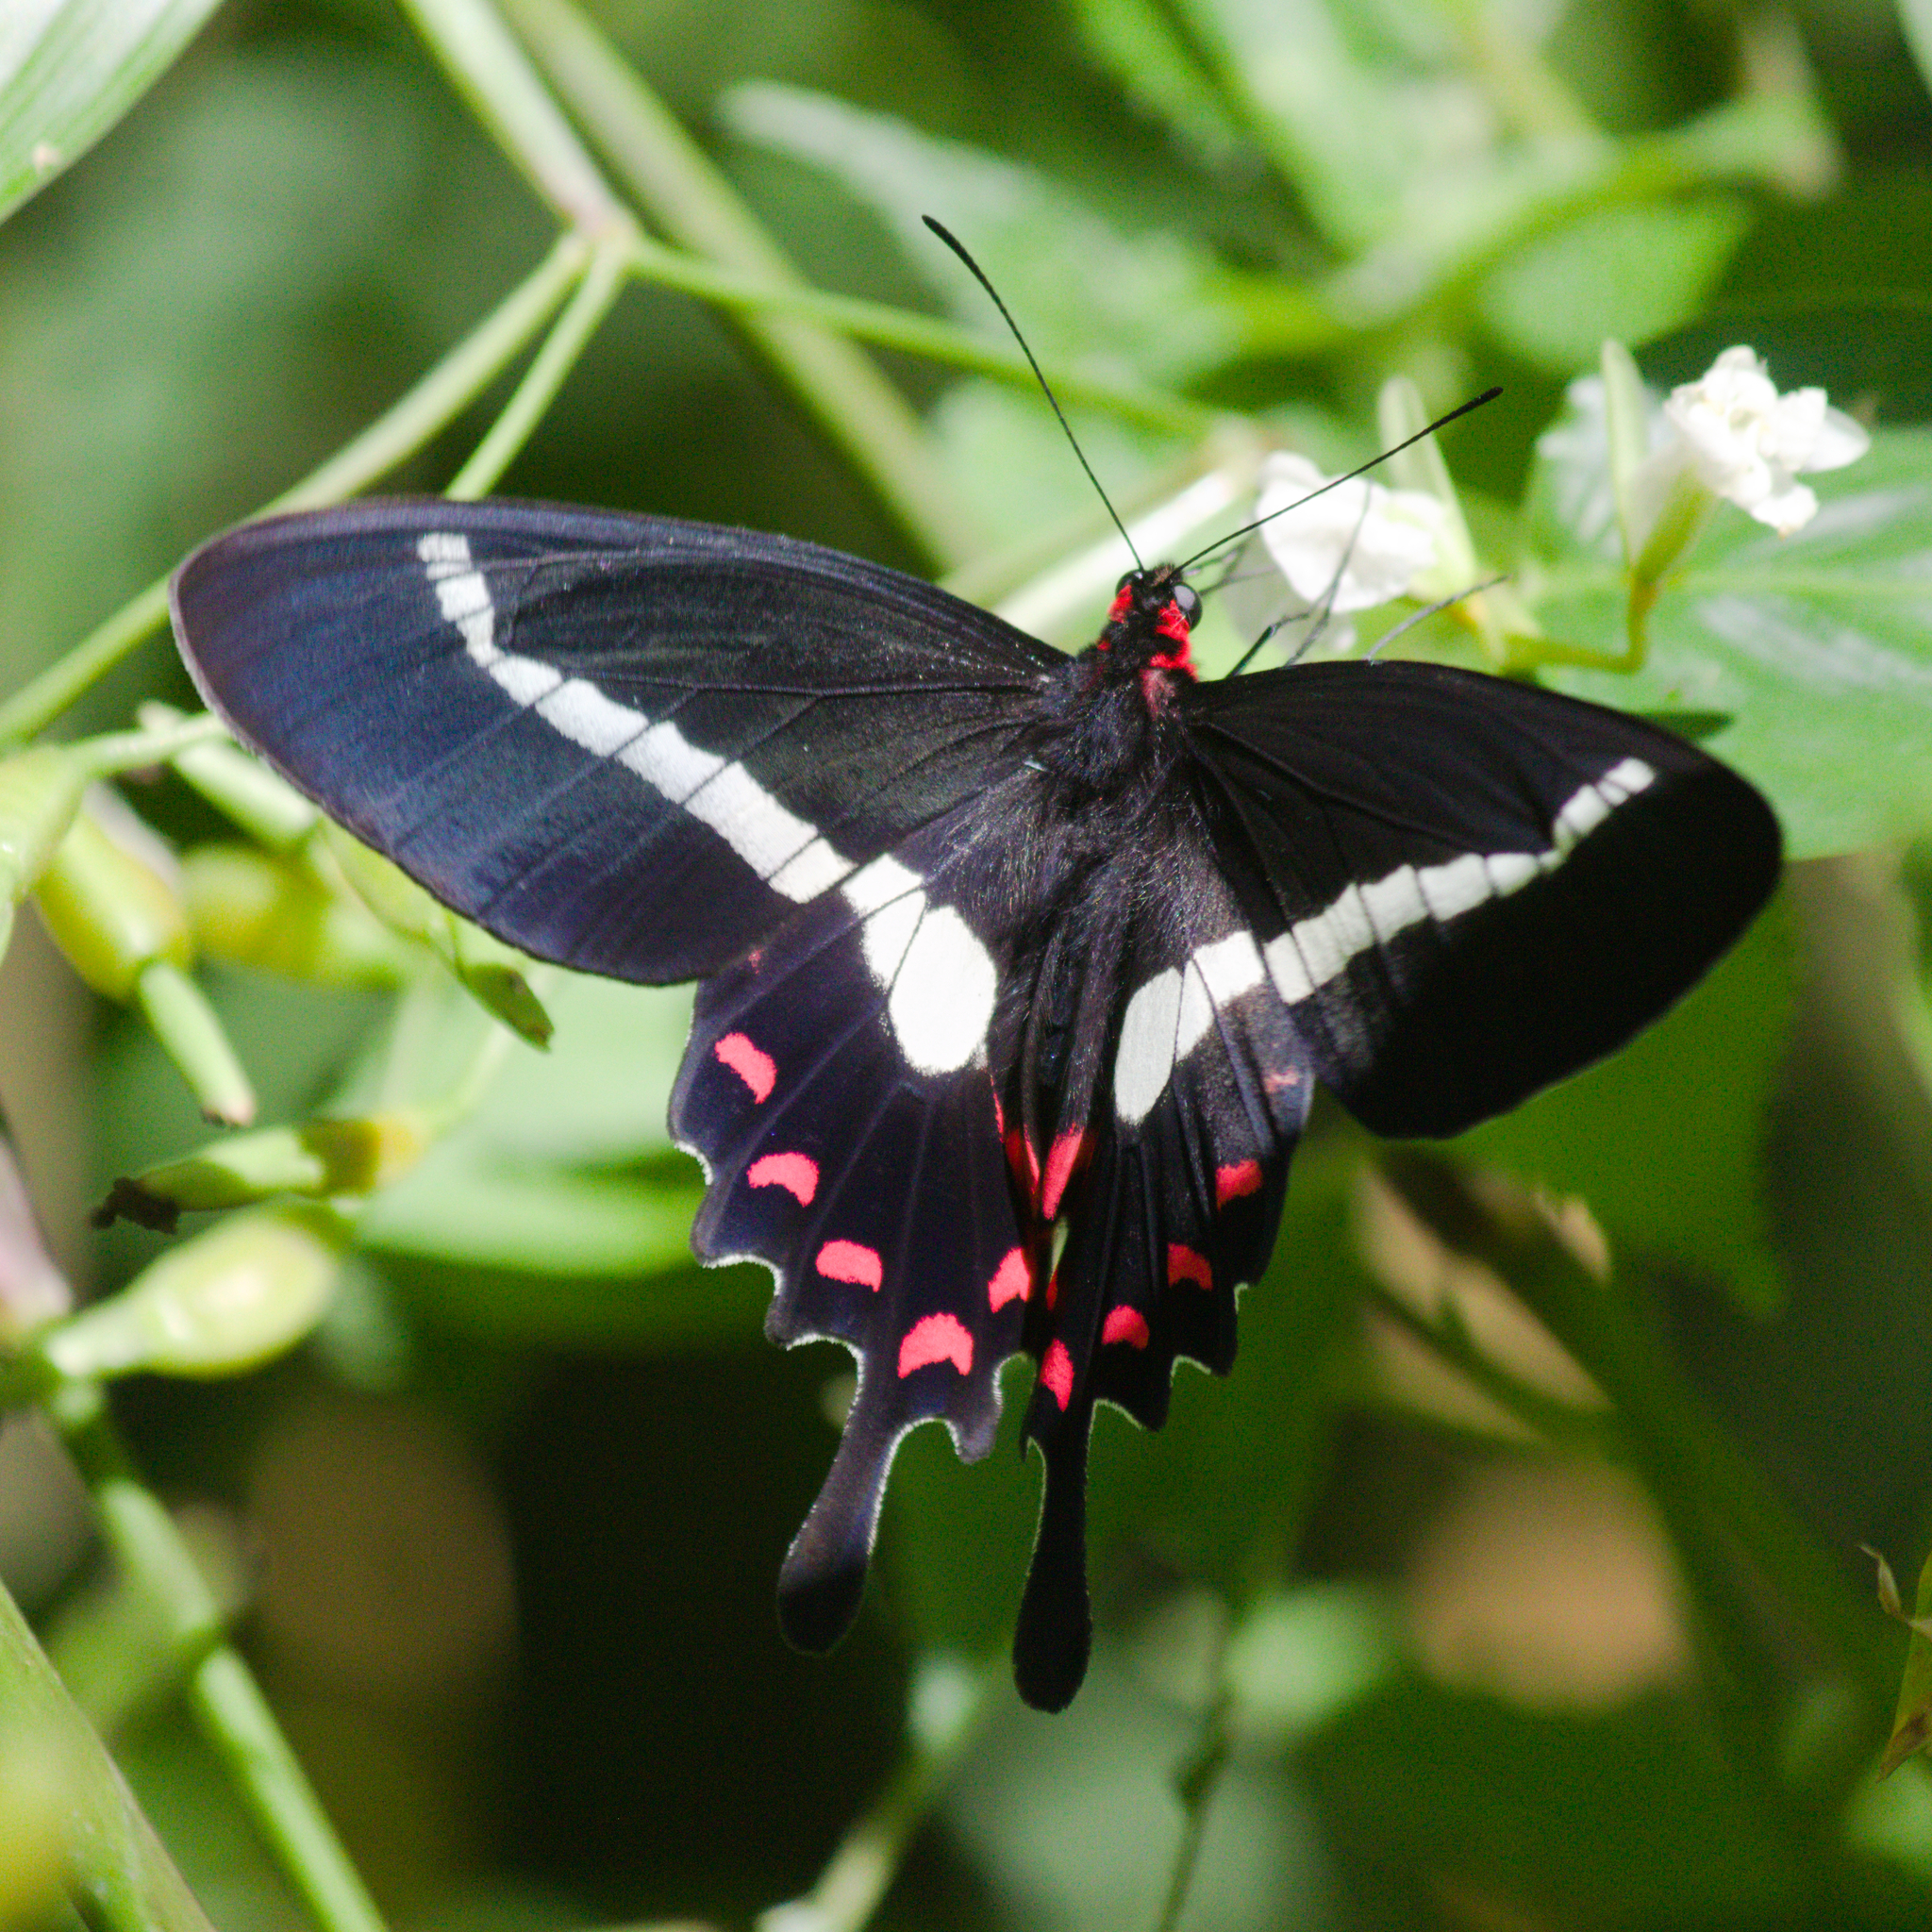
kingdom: Animalia
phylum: Arthropoda
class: Insecta
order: Lepidoptera
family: Papilionidae
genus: Parides
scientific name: Parides agavus
